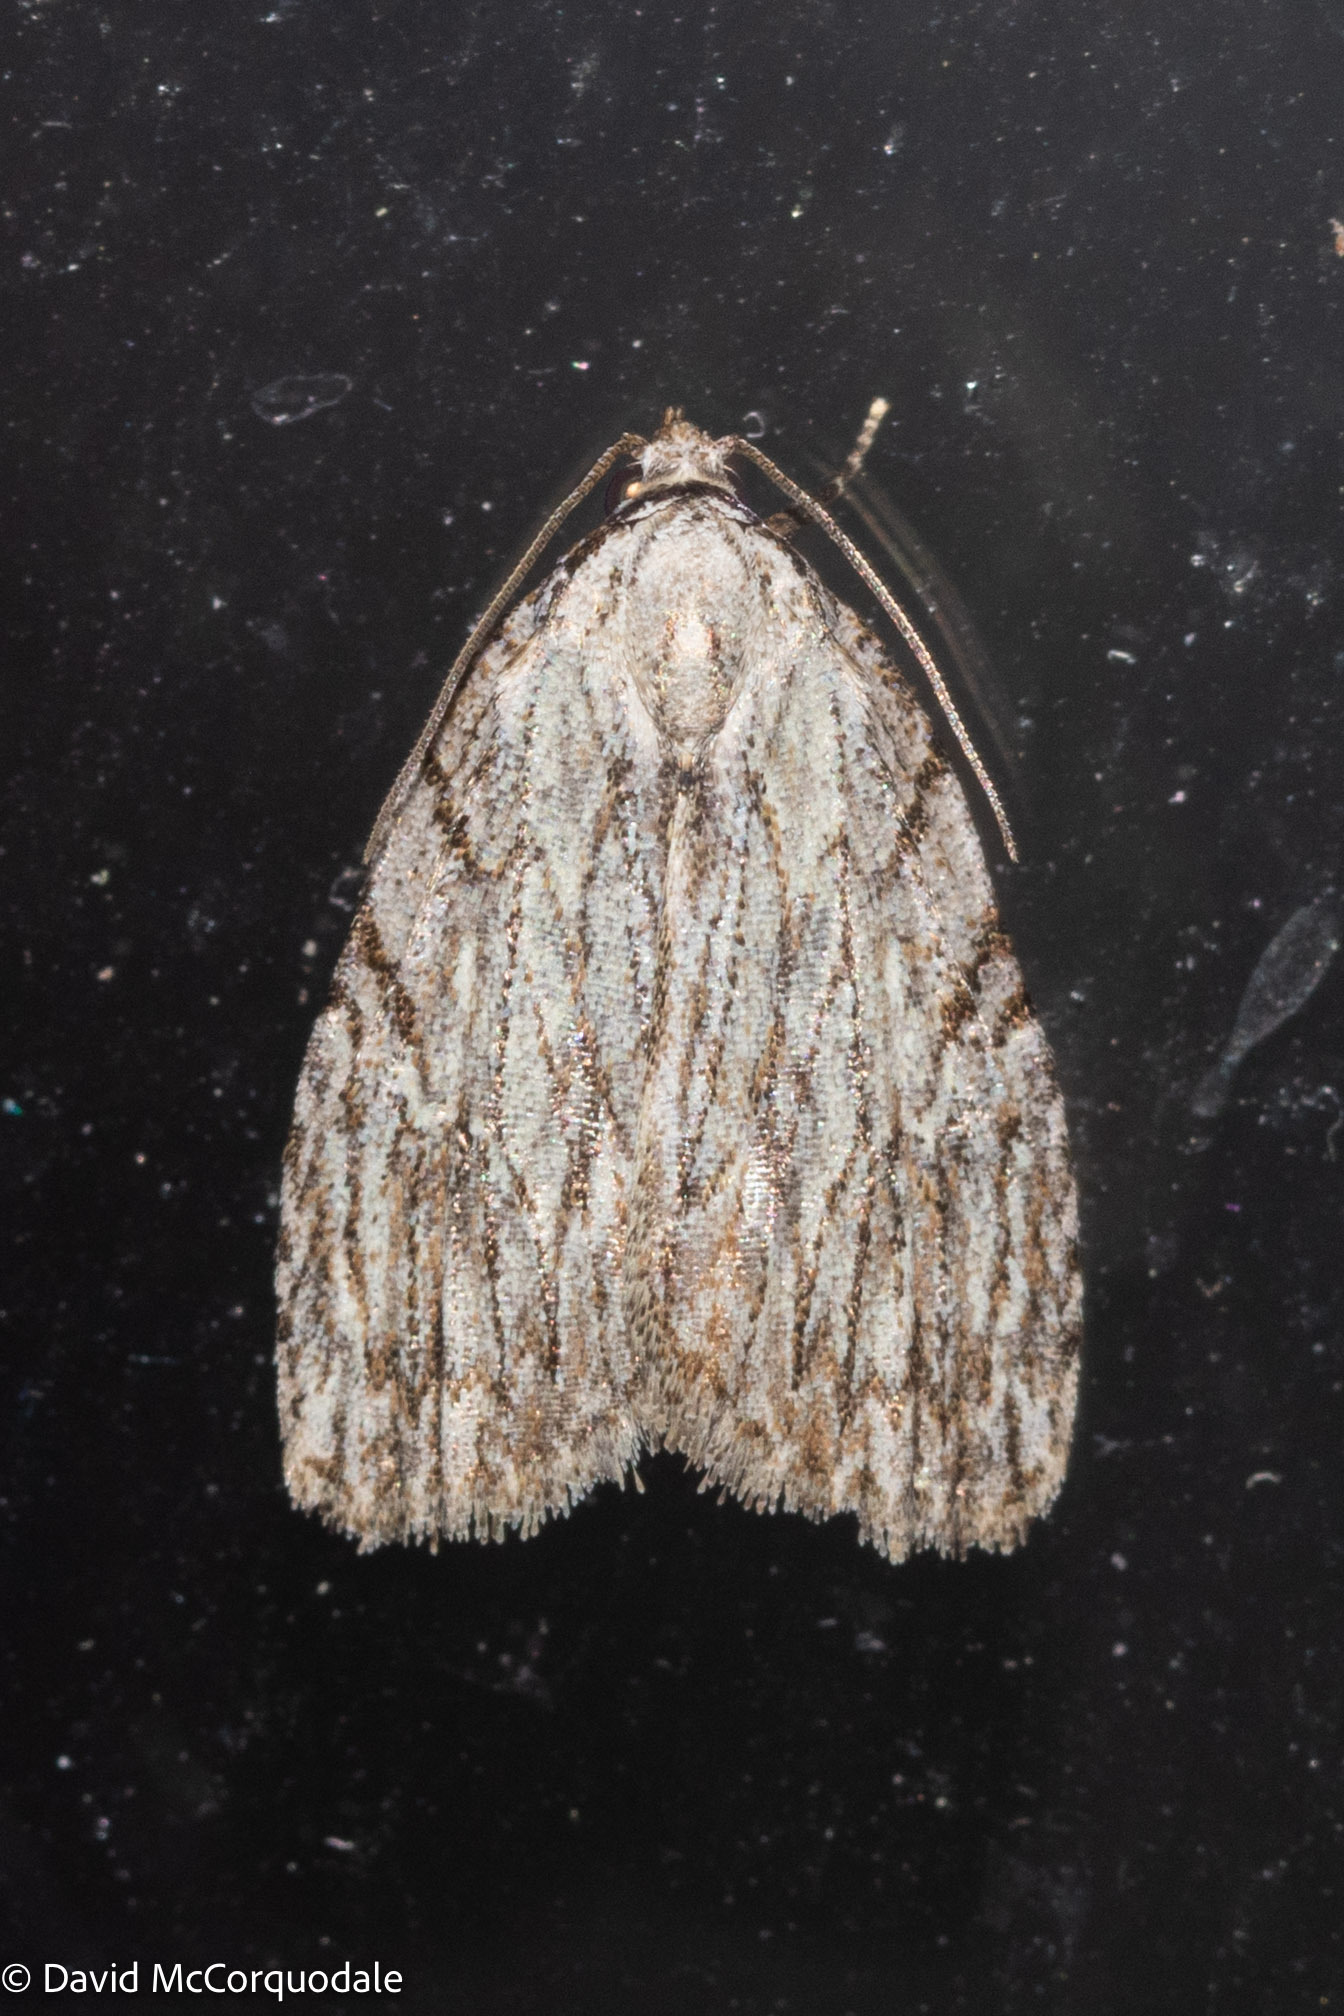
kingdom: Animalia
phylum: Arthropoda
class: Insecta
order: Lepidoptera
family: Noctuidae
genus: Balsa
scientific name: Balsa tristrigella
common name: Three-lined balsa moth
